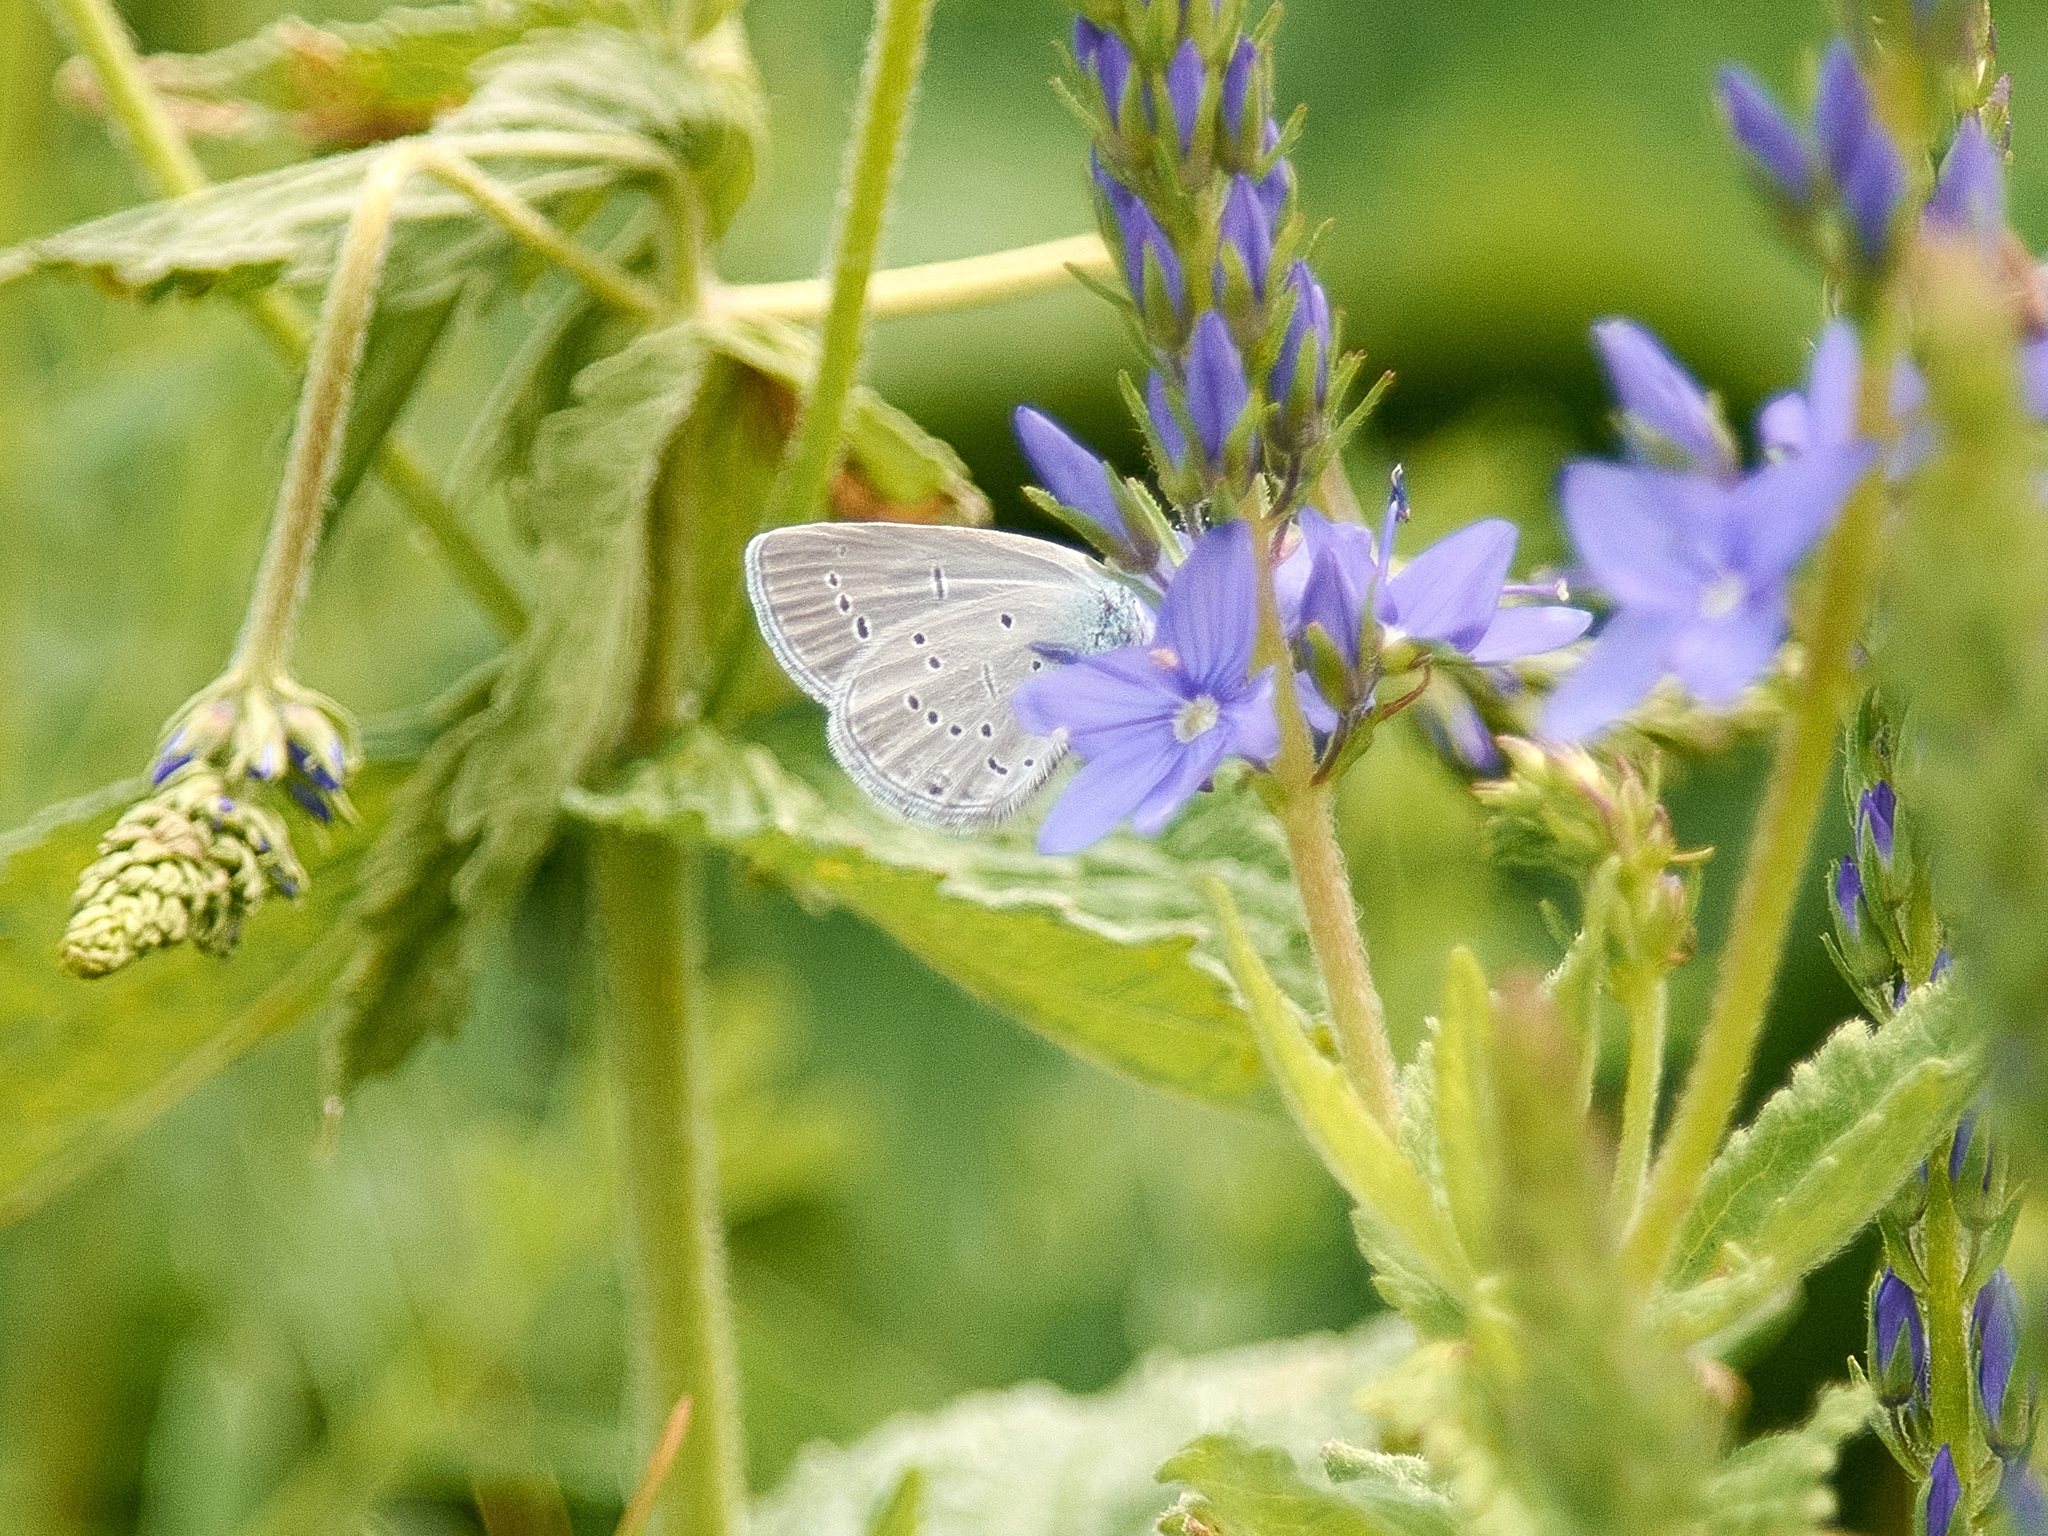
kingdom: Animalia
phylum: Arthropoda
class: Insecta
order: Lepidoptera
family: Lycaenidae
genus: Cupido
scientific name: Cupido minimus
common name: Small blue
